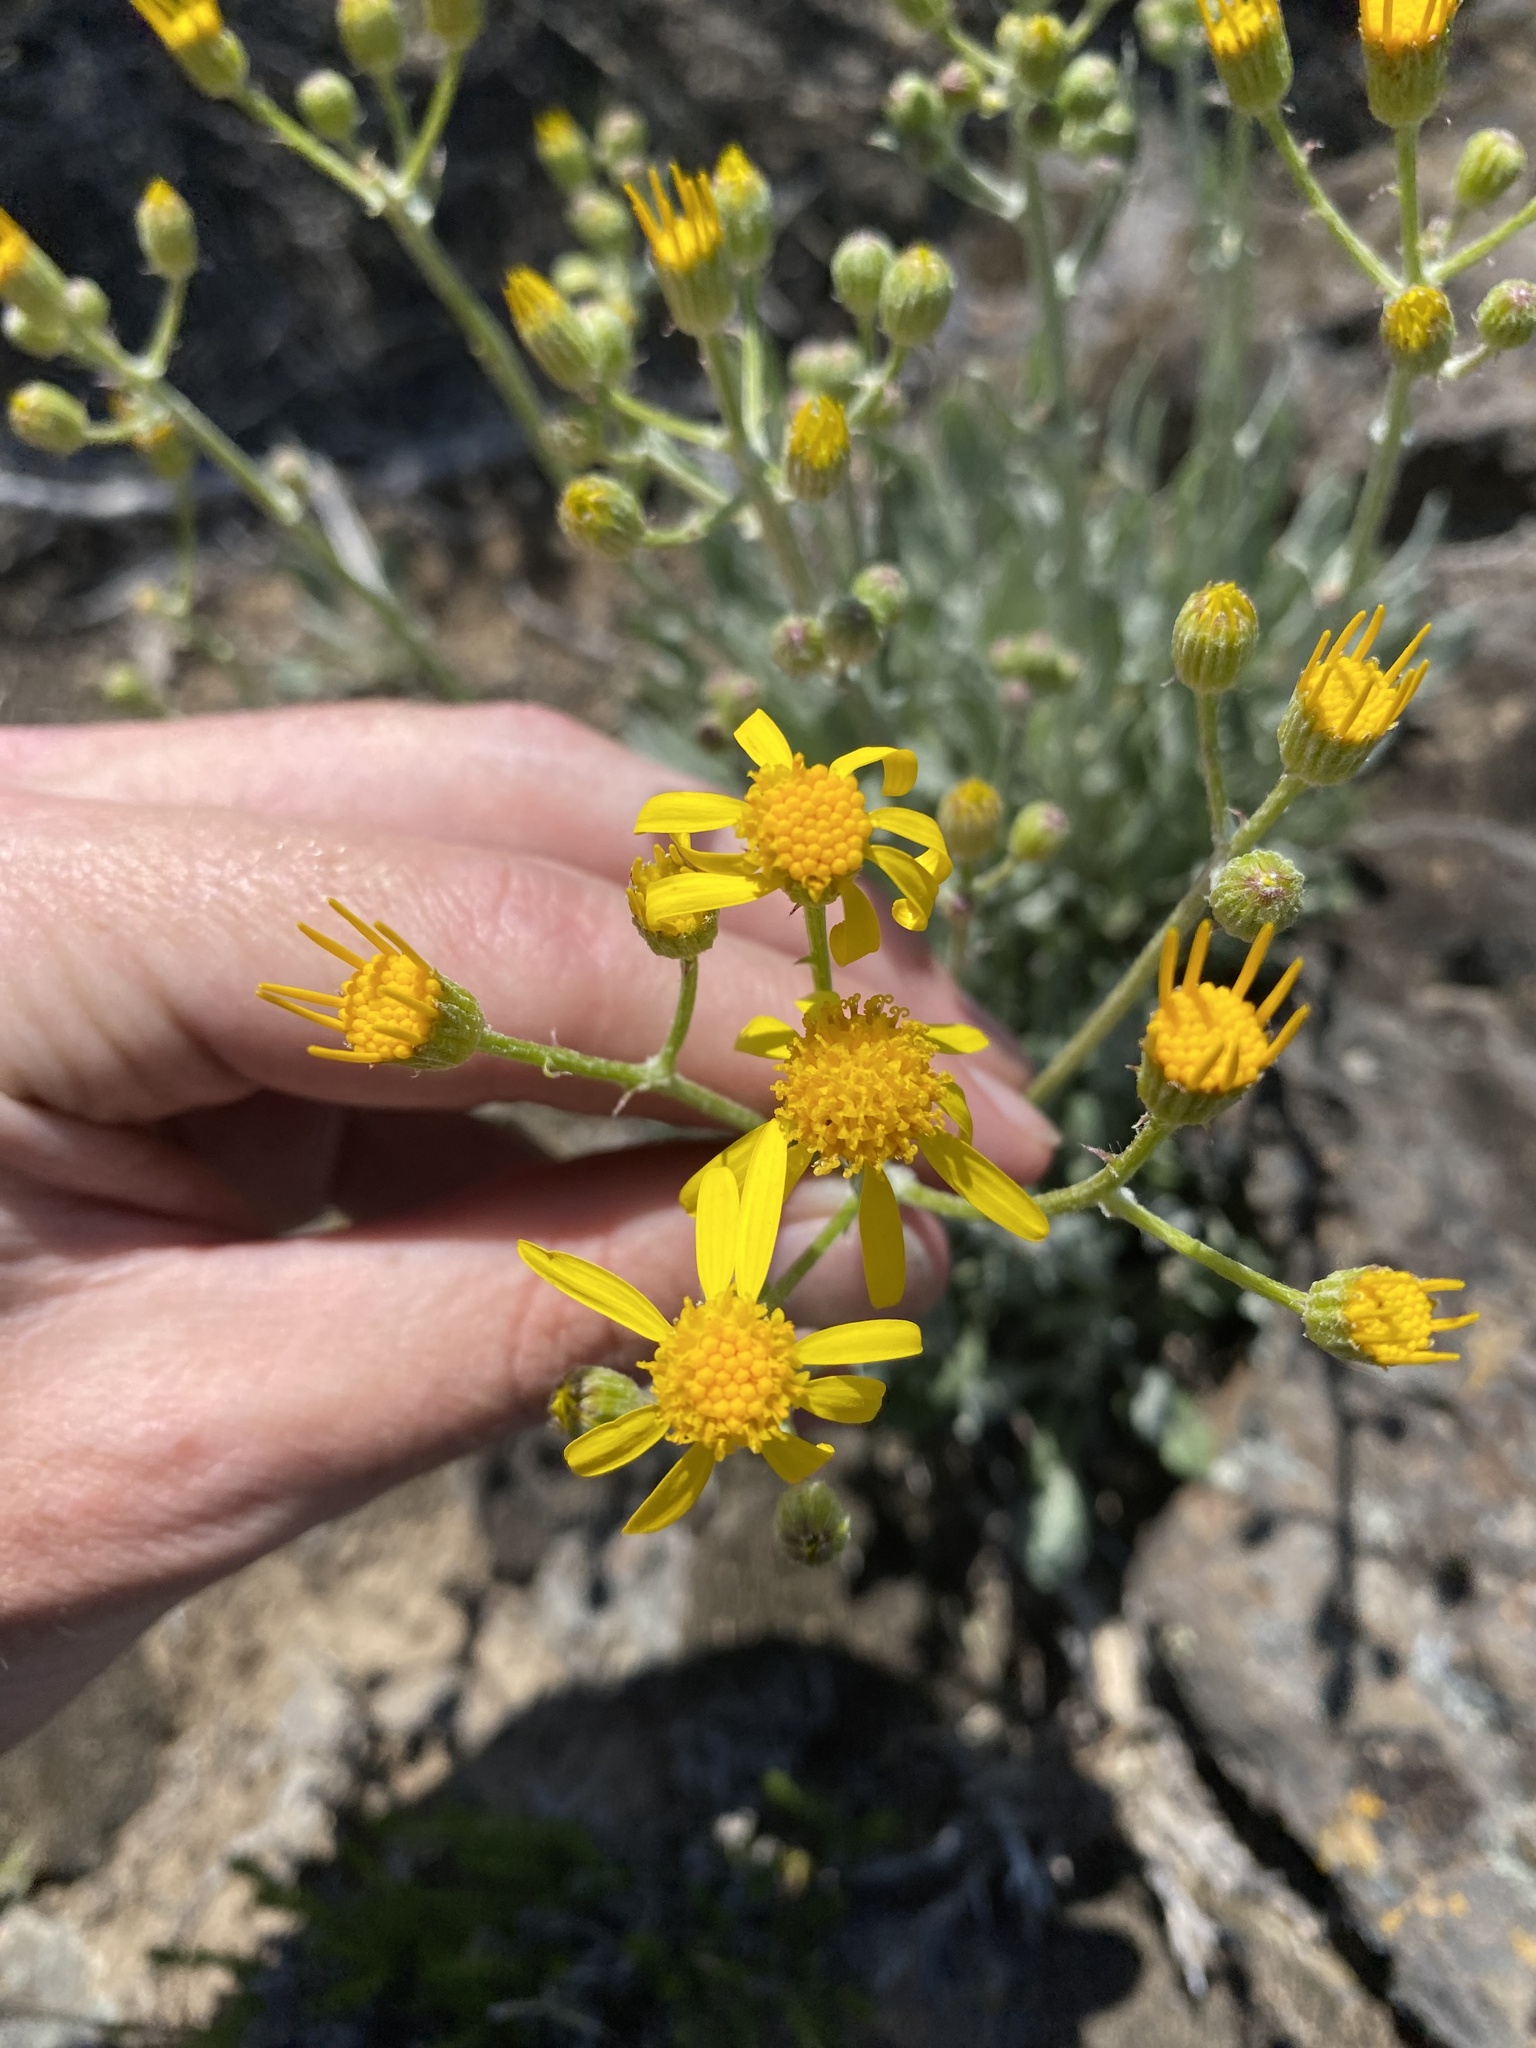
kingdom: Plantae
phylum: Tracheophyta
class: Magnoliopsida
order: Asterales
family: Asteraceae
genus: Packera
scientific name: Packera cana
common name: Woolly groundsel
